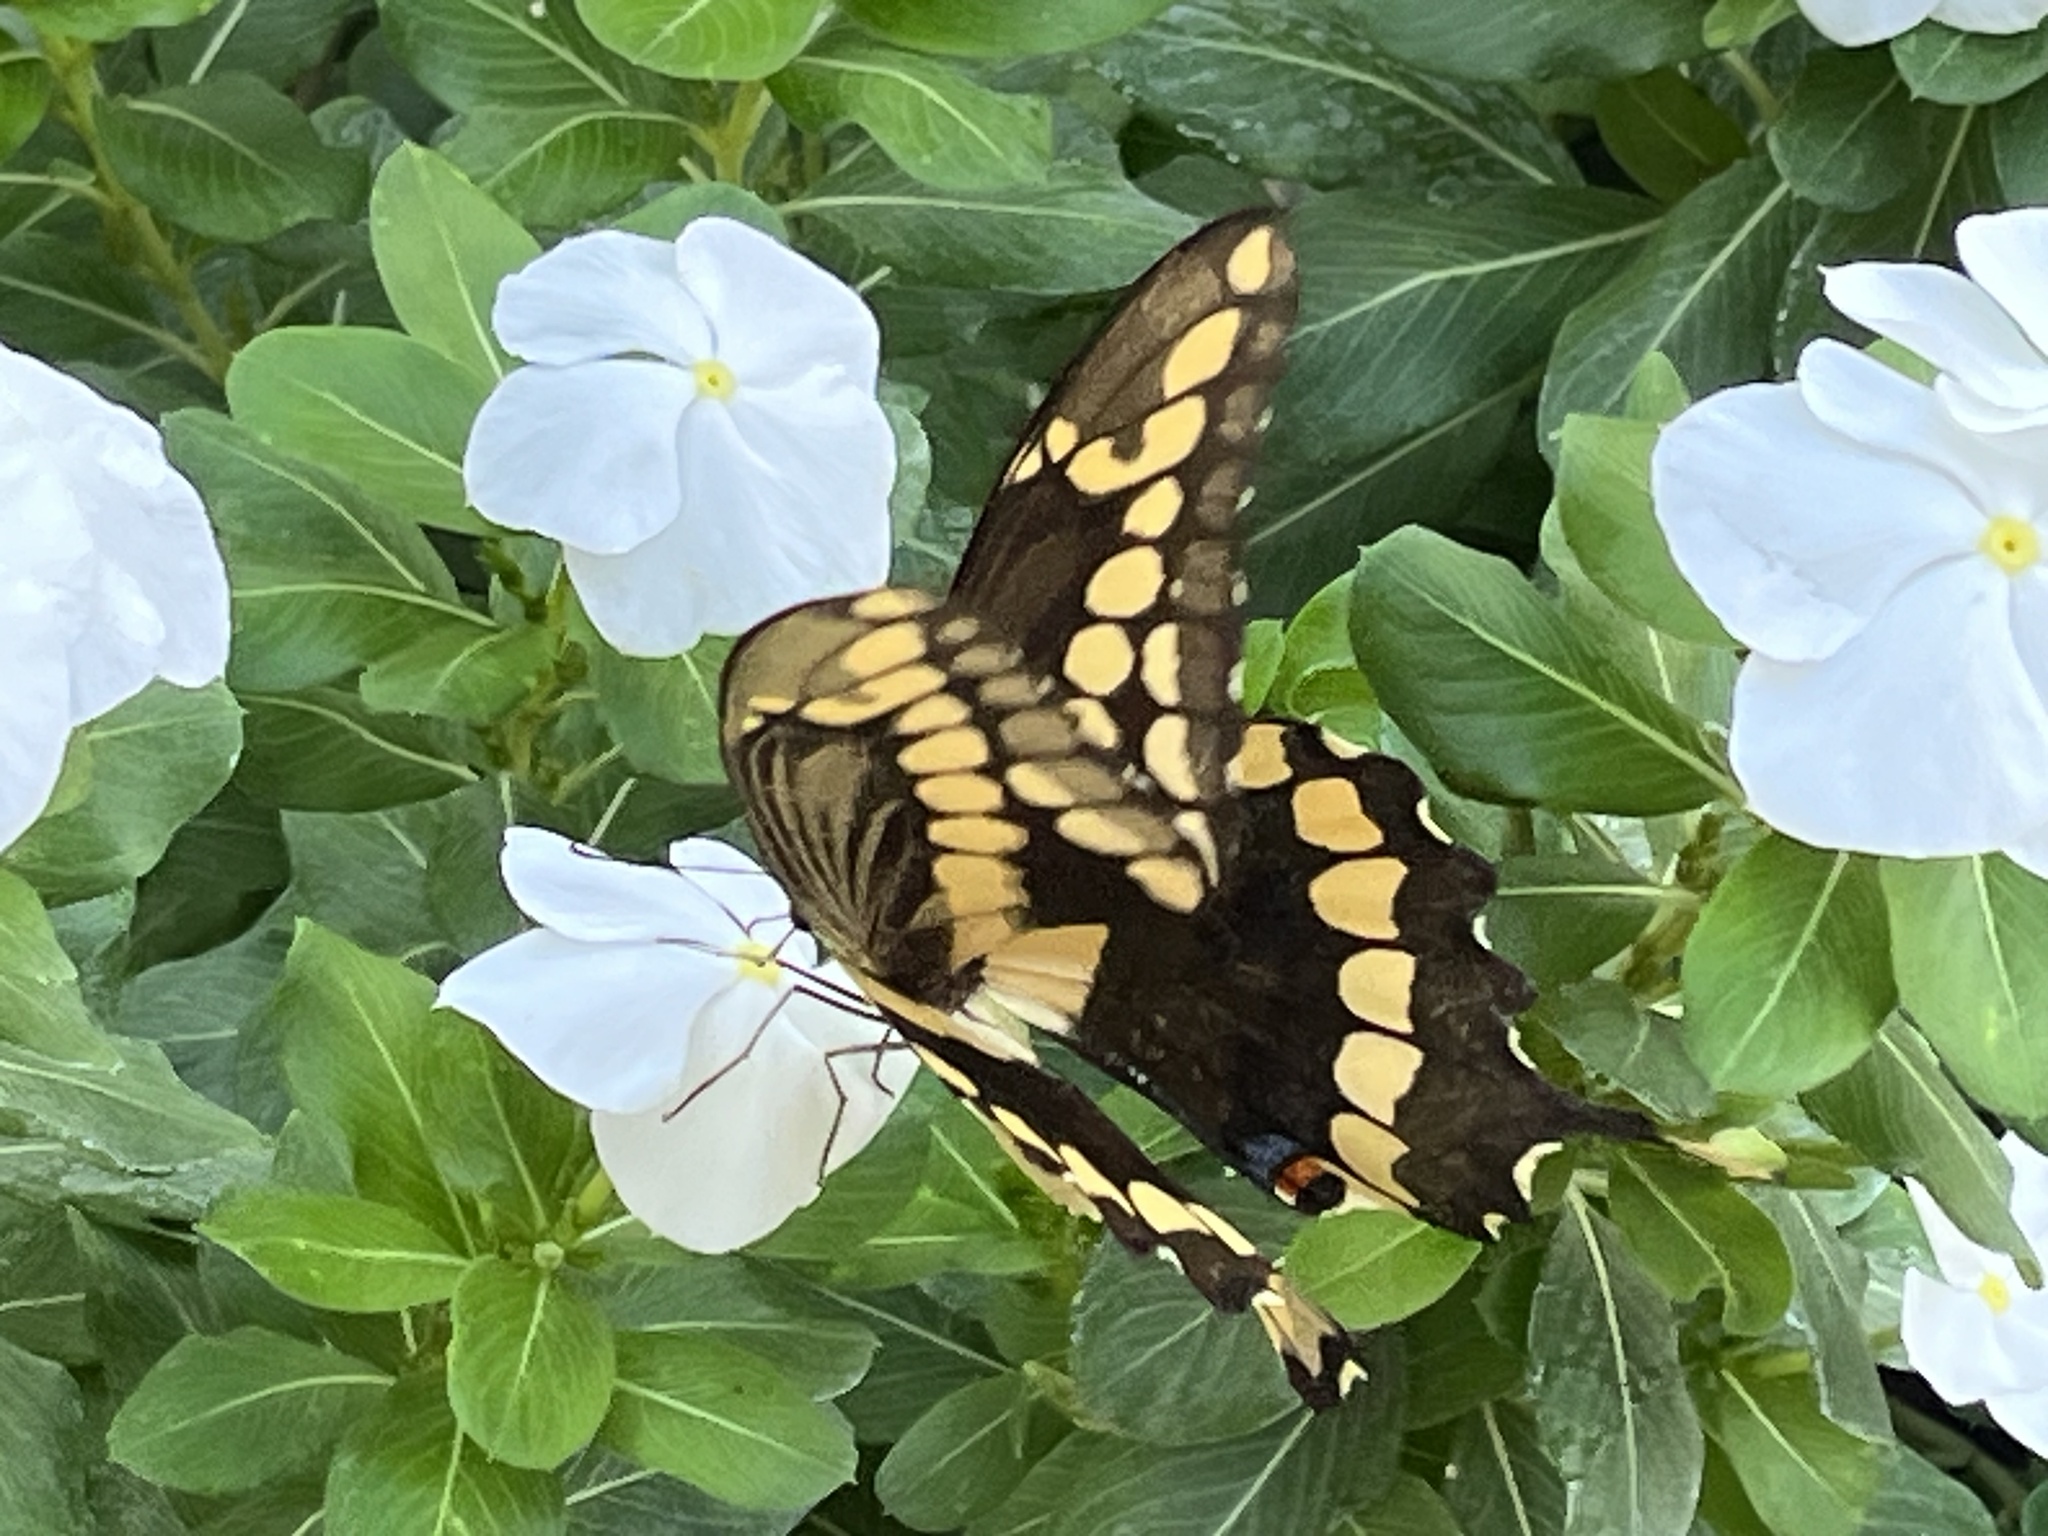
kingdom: Animalia
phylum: Arthropoda
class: Insecta
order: Lepidoptera
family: Papilionidae
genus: Papilio
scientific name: Papilio rumiko
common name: Western giant swallowtail
